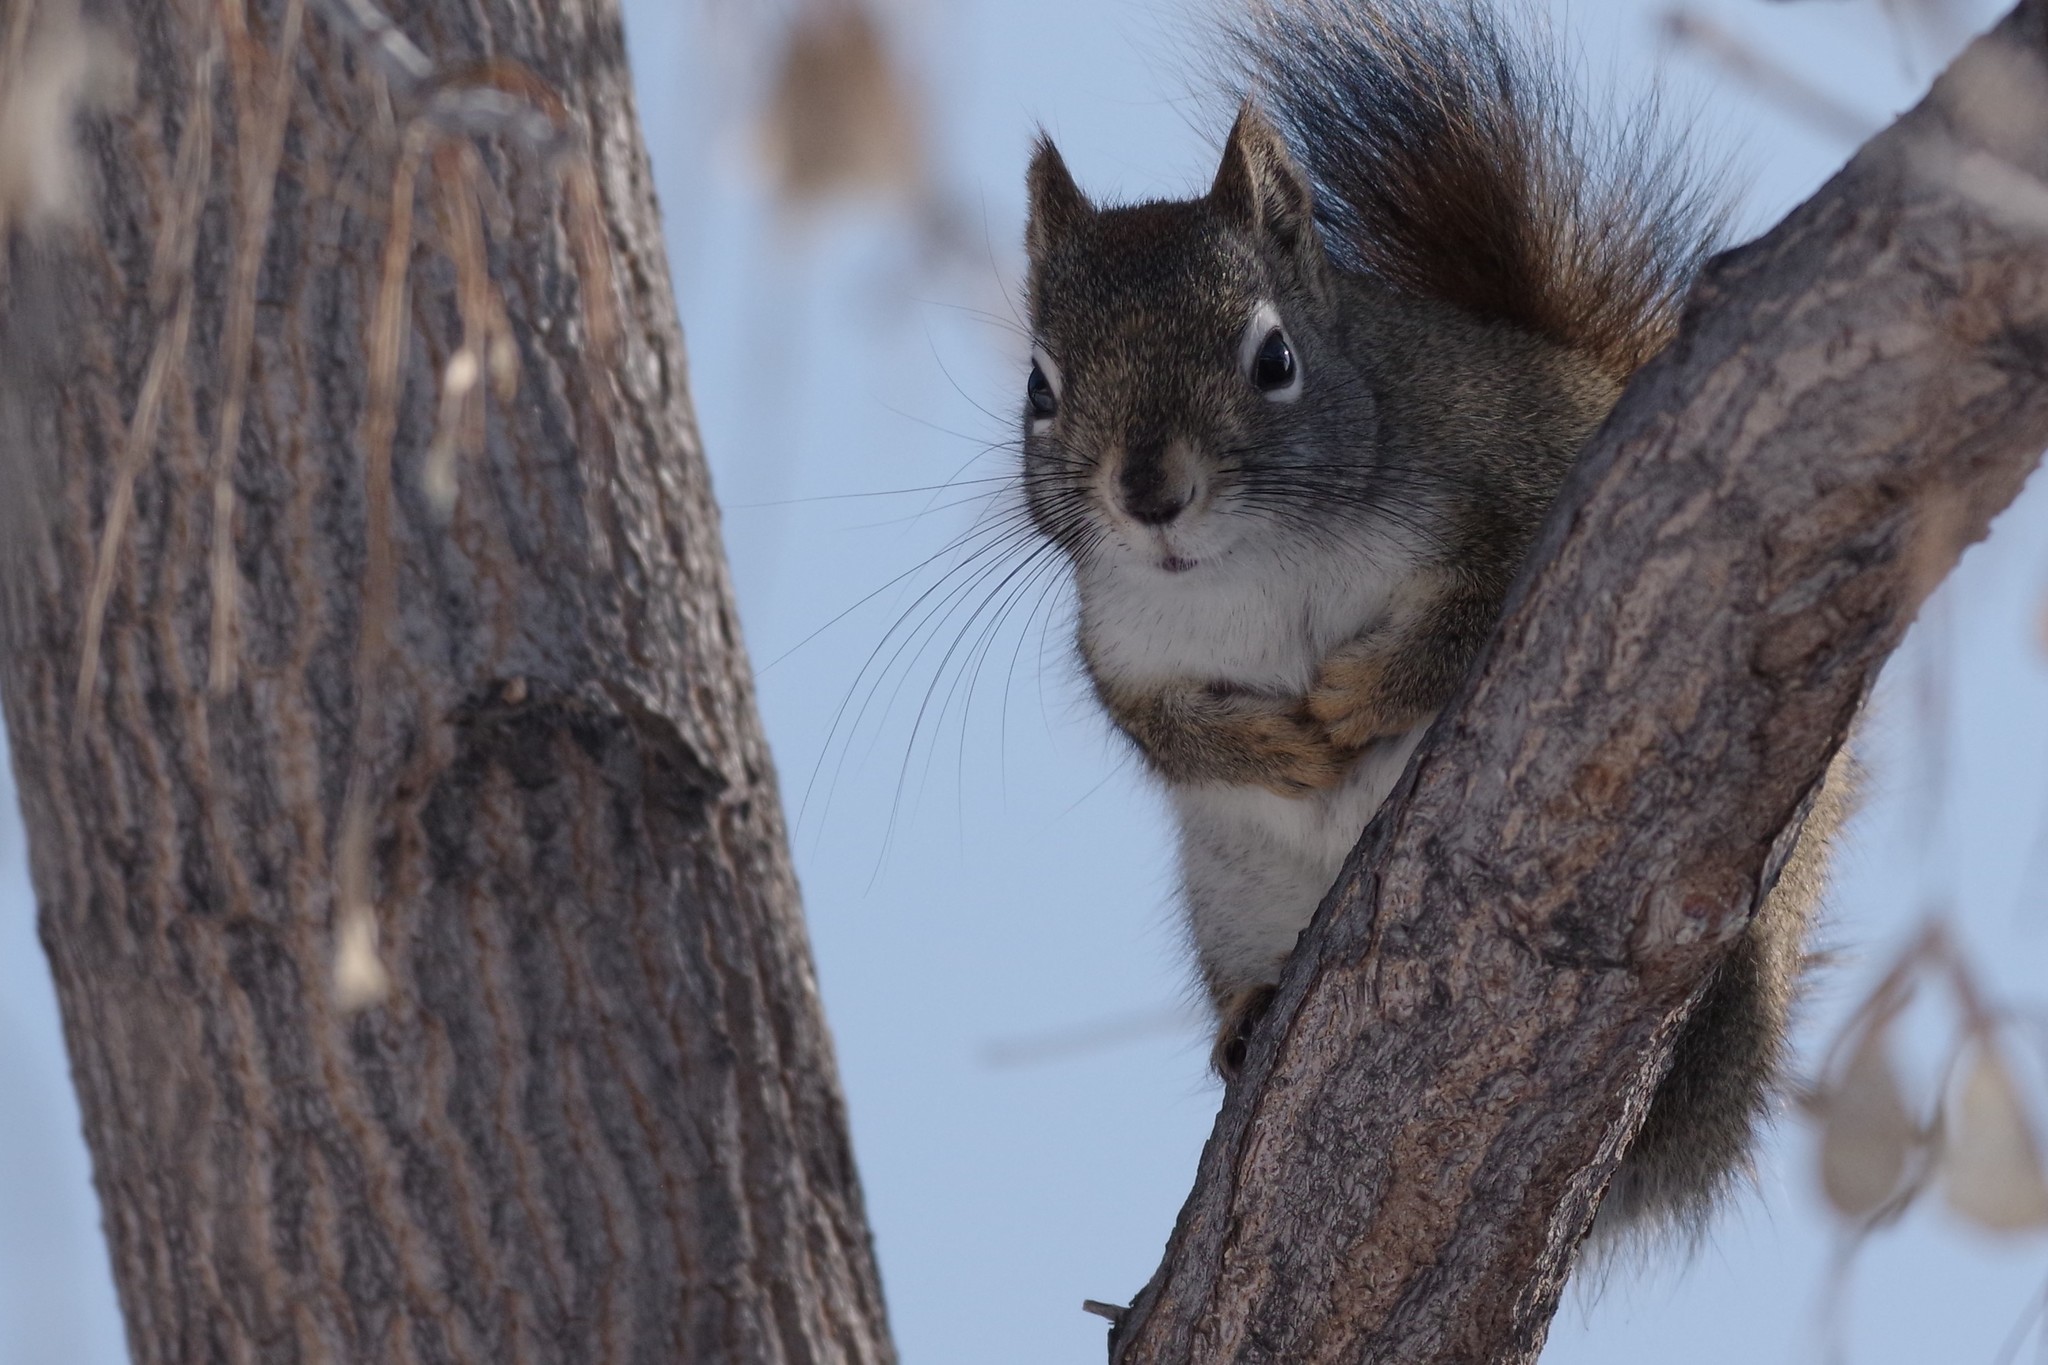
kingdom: Animalia
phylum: Chordata
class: Mammalia
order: Rodentia
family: Sciuridae
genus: Tamiasciurus
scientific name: Tamiasciurus hudsonicus
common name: Red squirrel
